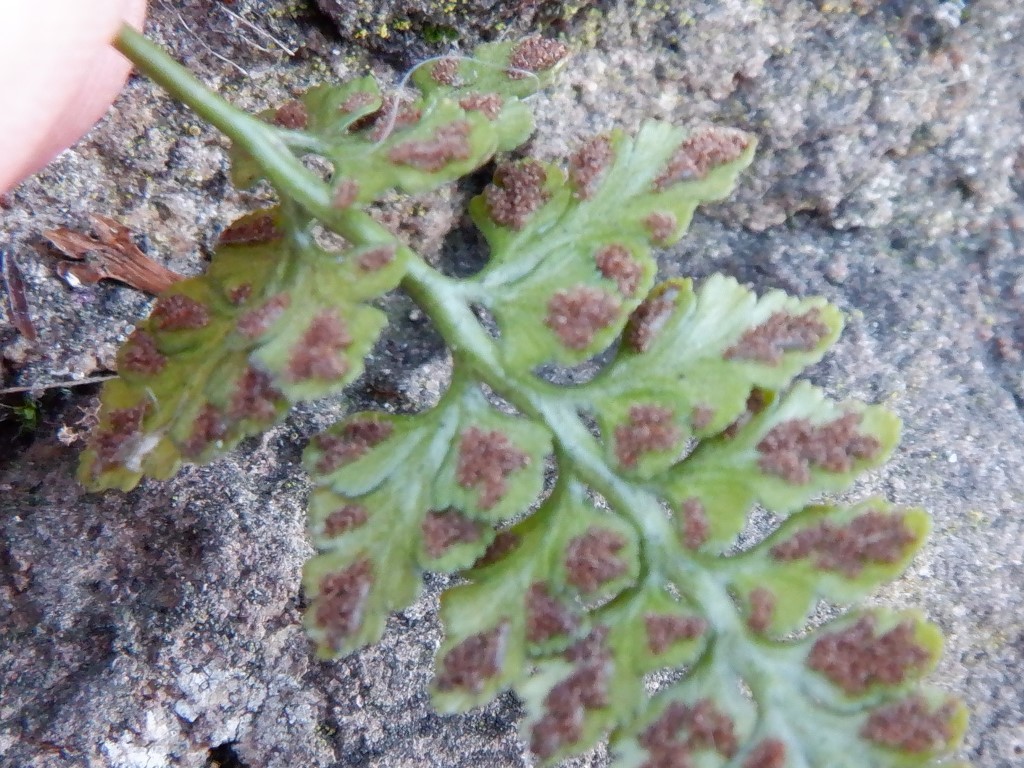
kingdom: Plantae
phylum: Tracheophyta
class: Polypodiopsida
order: Polypodiales
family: Aspleniaceae
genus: Asplenium
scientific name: Asplenium adiantum-nigrum
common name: Black spleenwort
